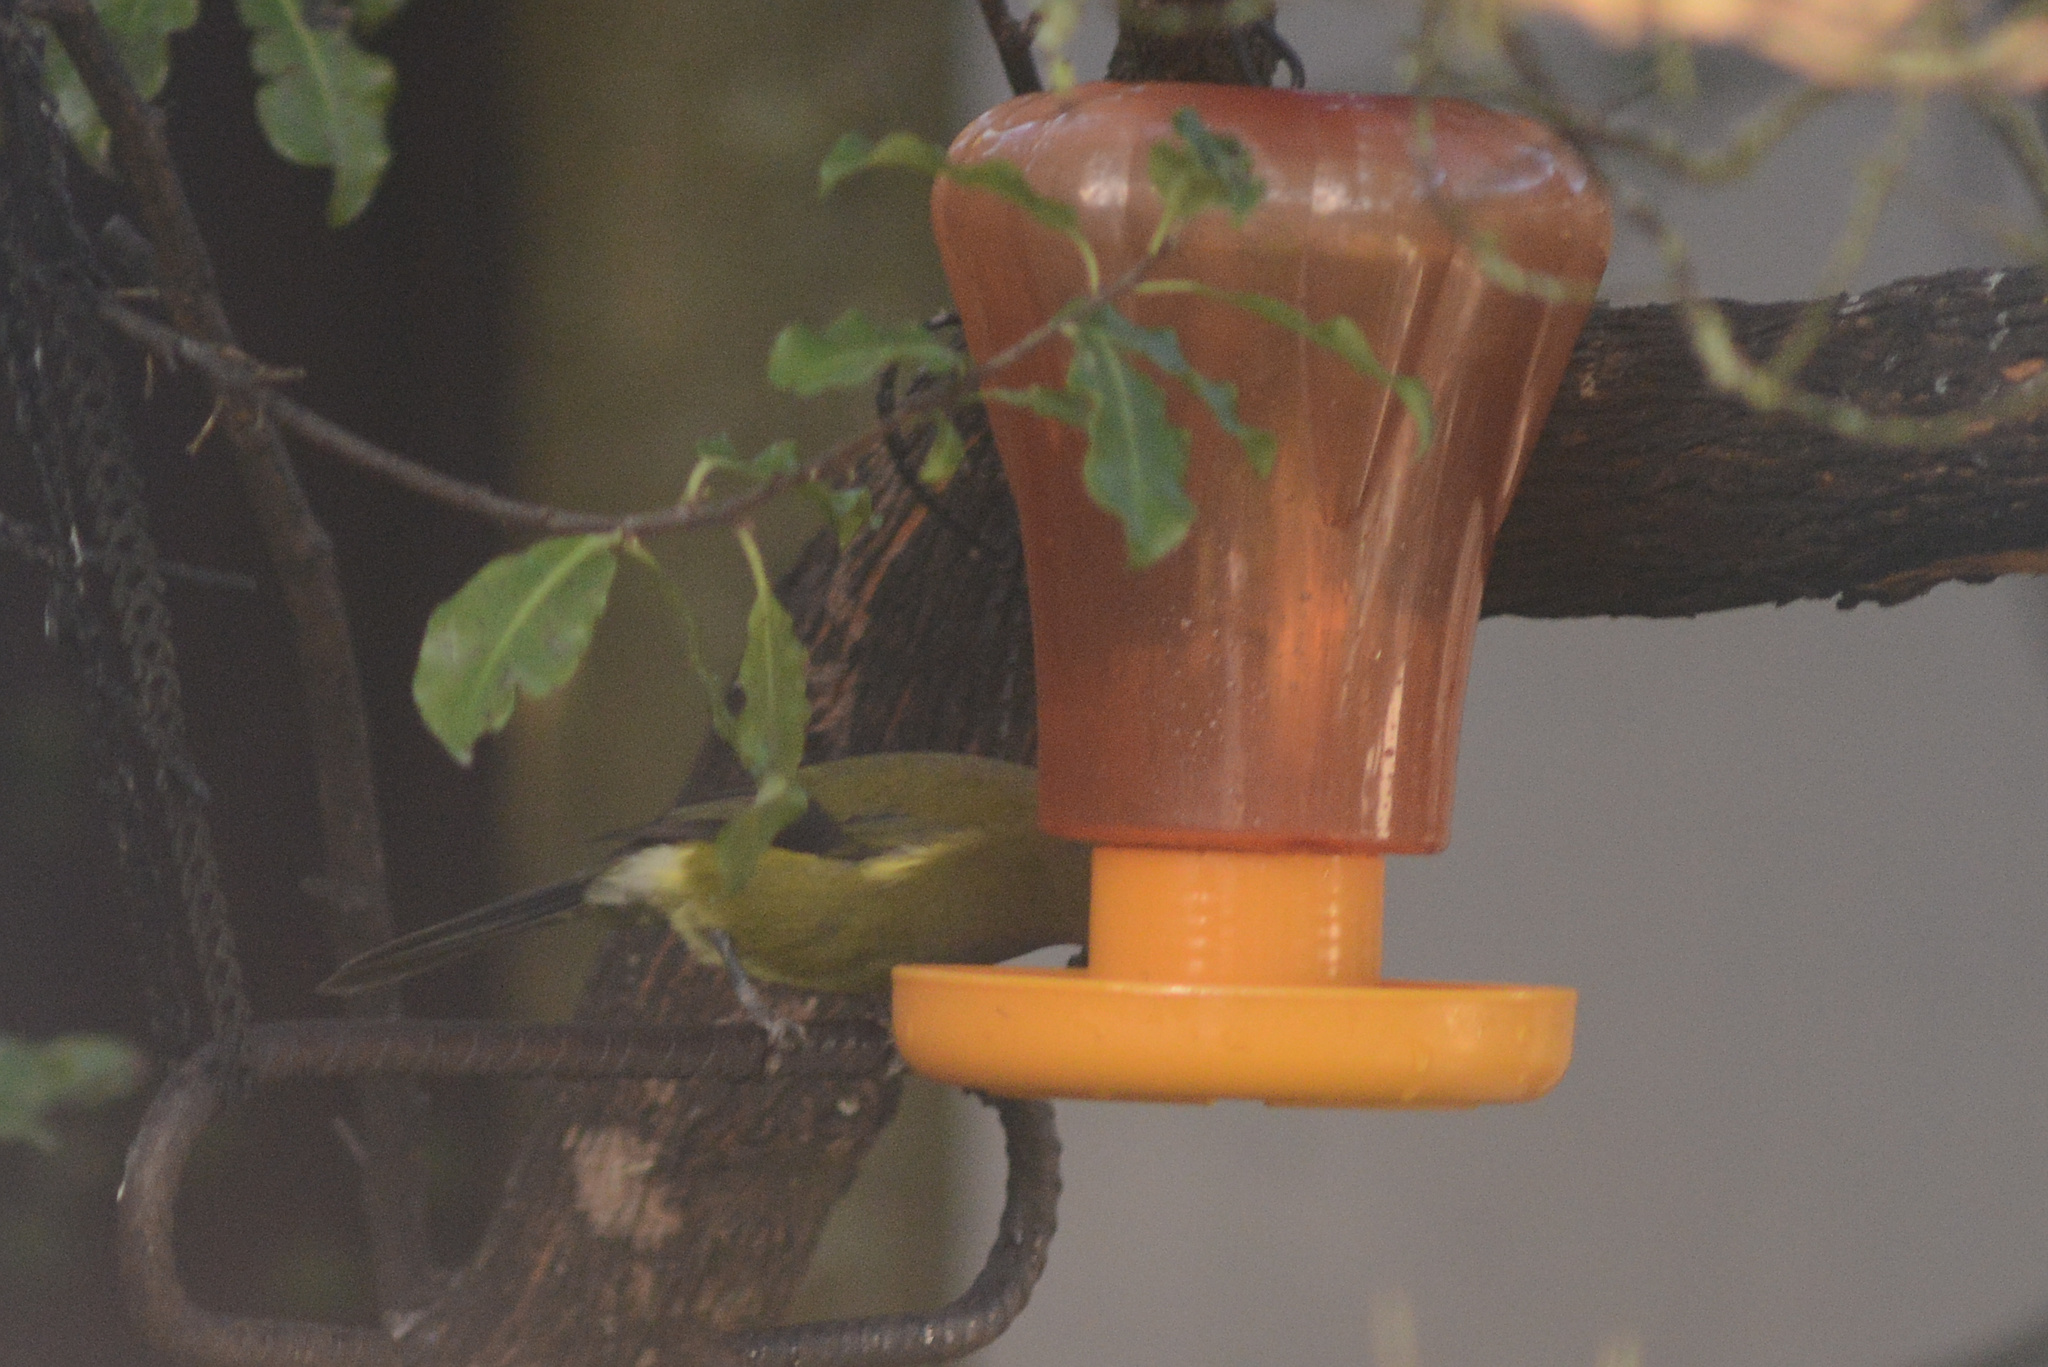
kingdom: Animalia
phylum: Chordata
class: Aves
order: Passeriformes
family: Meliphagidae
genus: Anthornis
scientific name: Anthornis melanura
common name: New zealand bellbird
